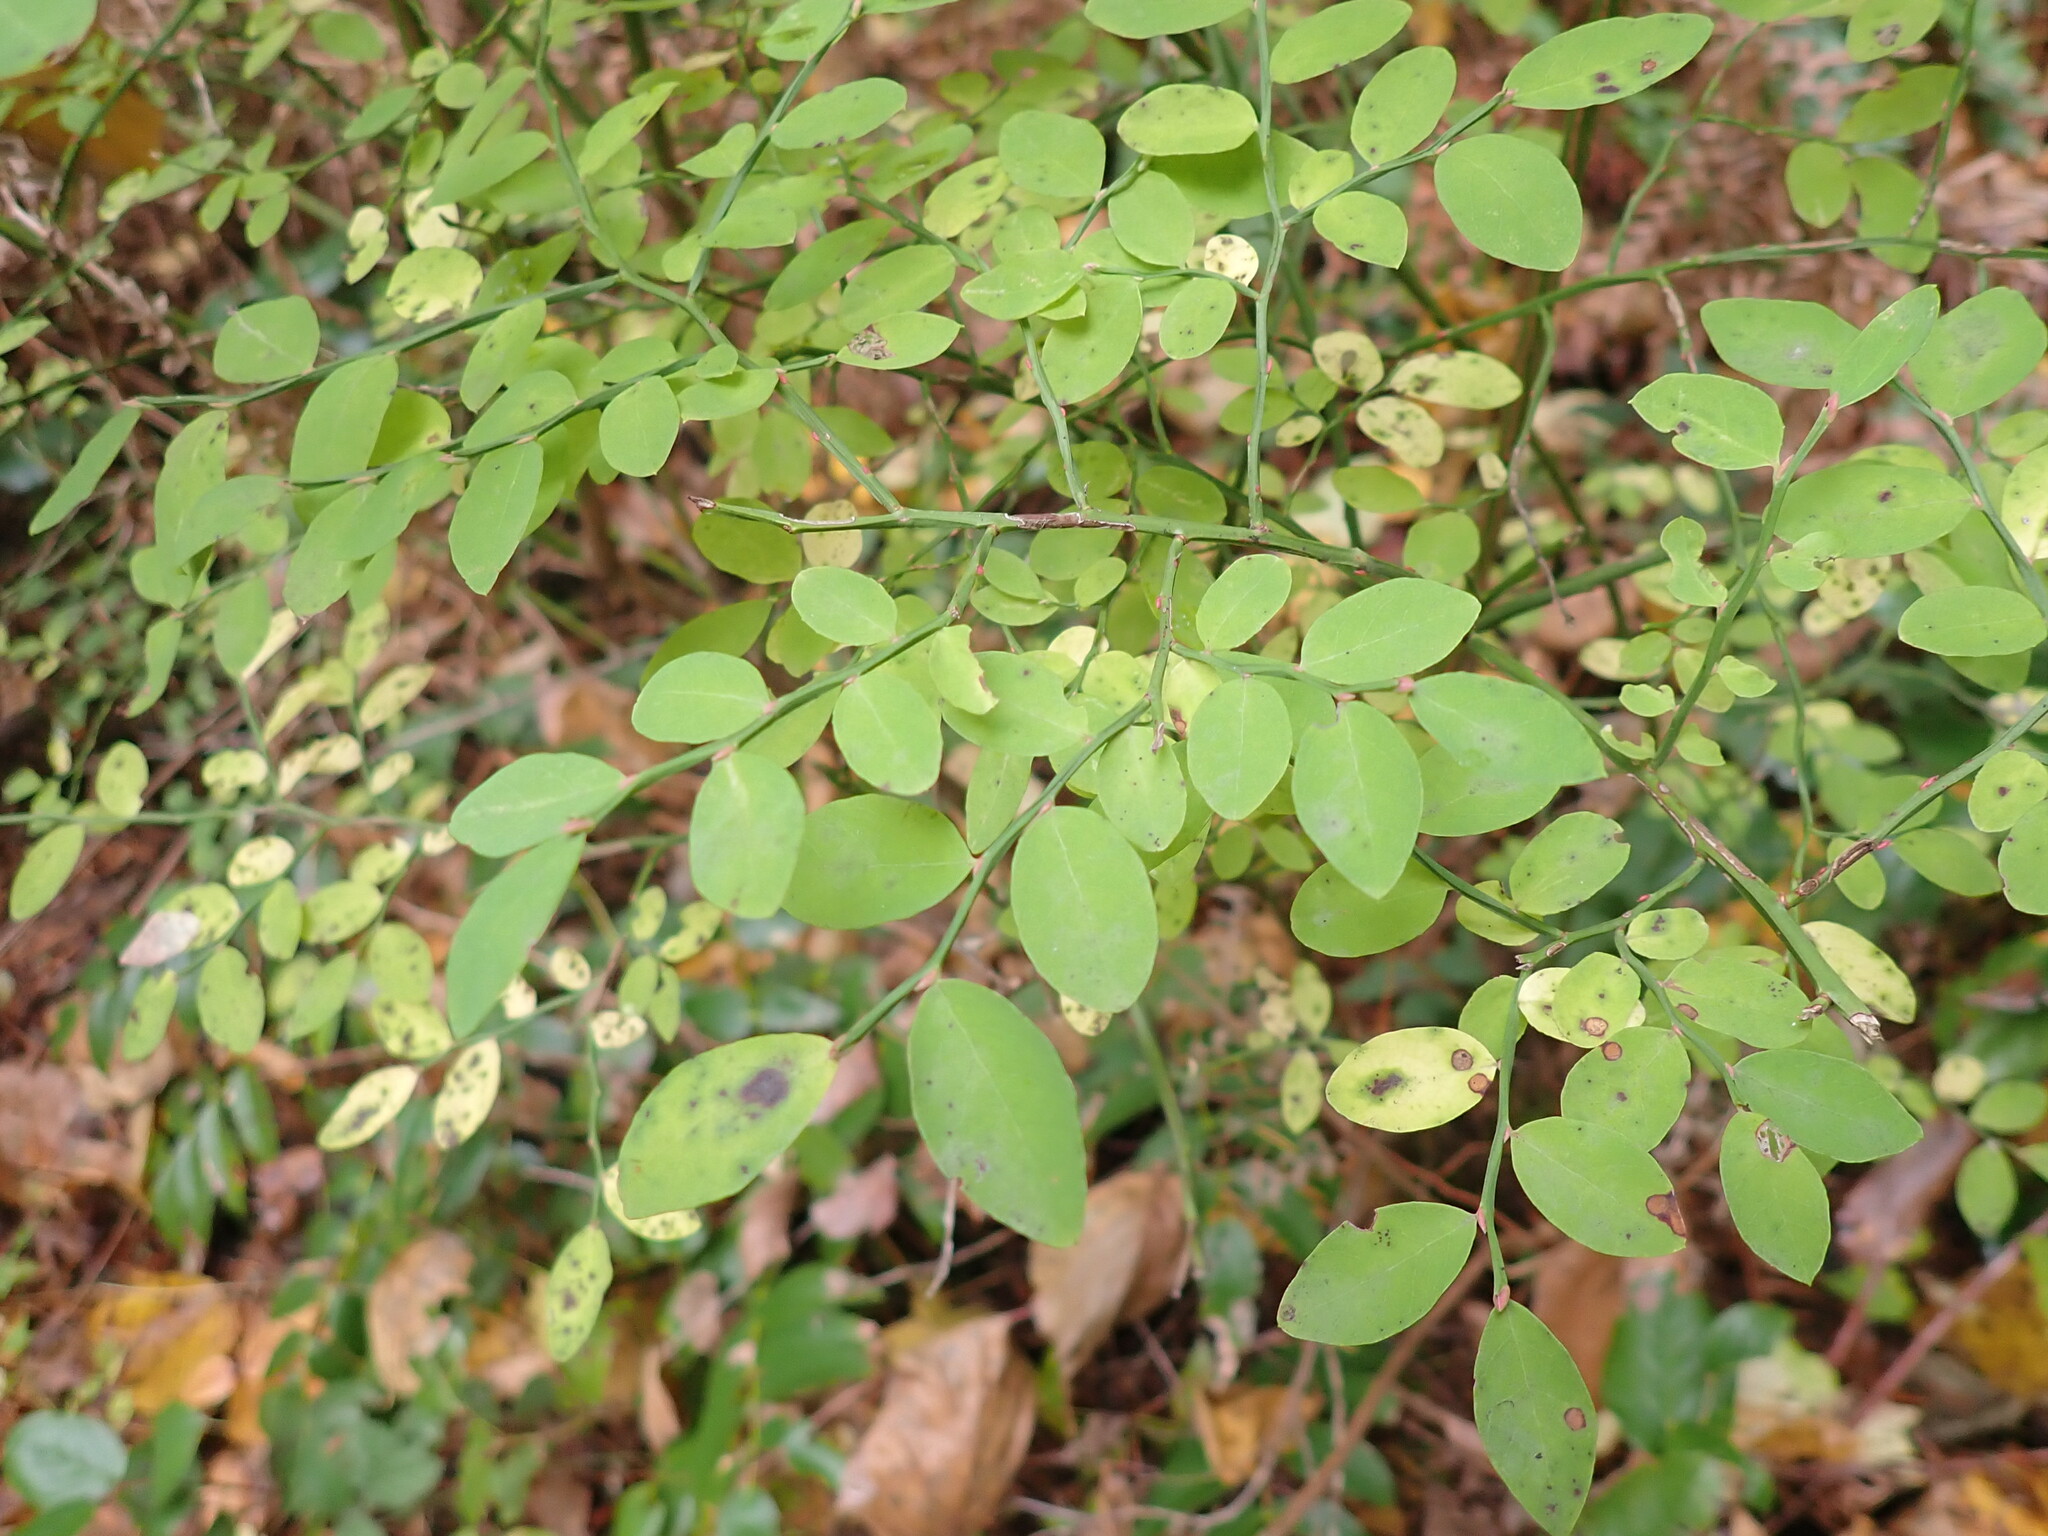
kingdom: Plantae
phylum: Tracheophyta
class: Magnoliopsida
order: Ericales
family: Ericaceae
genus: Vaccinium
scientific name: Vaccinium parvifolium
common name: Red-huckleberry
